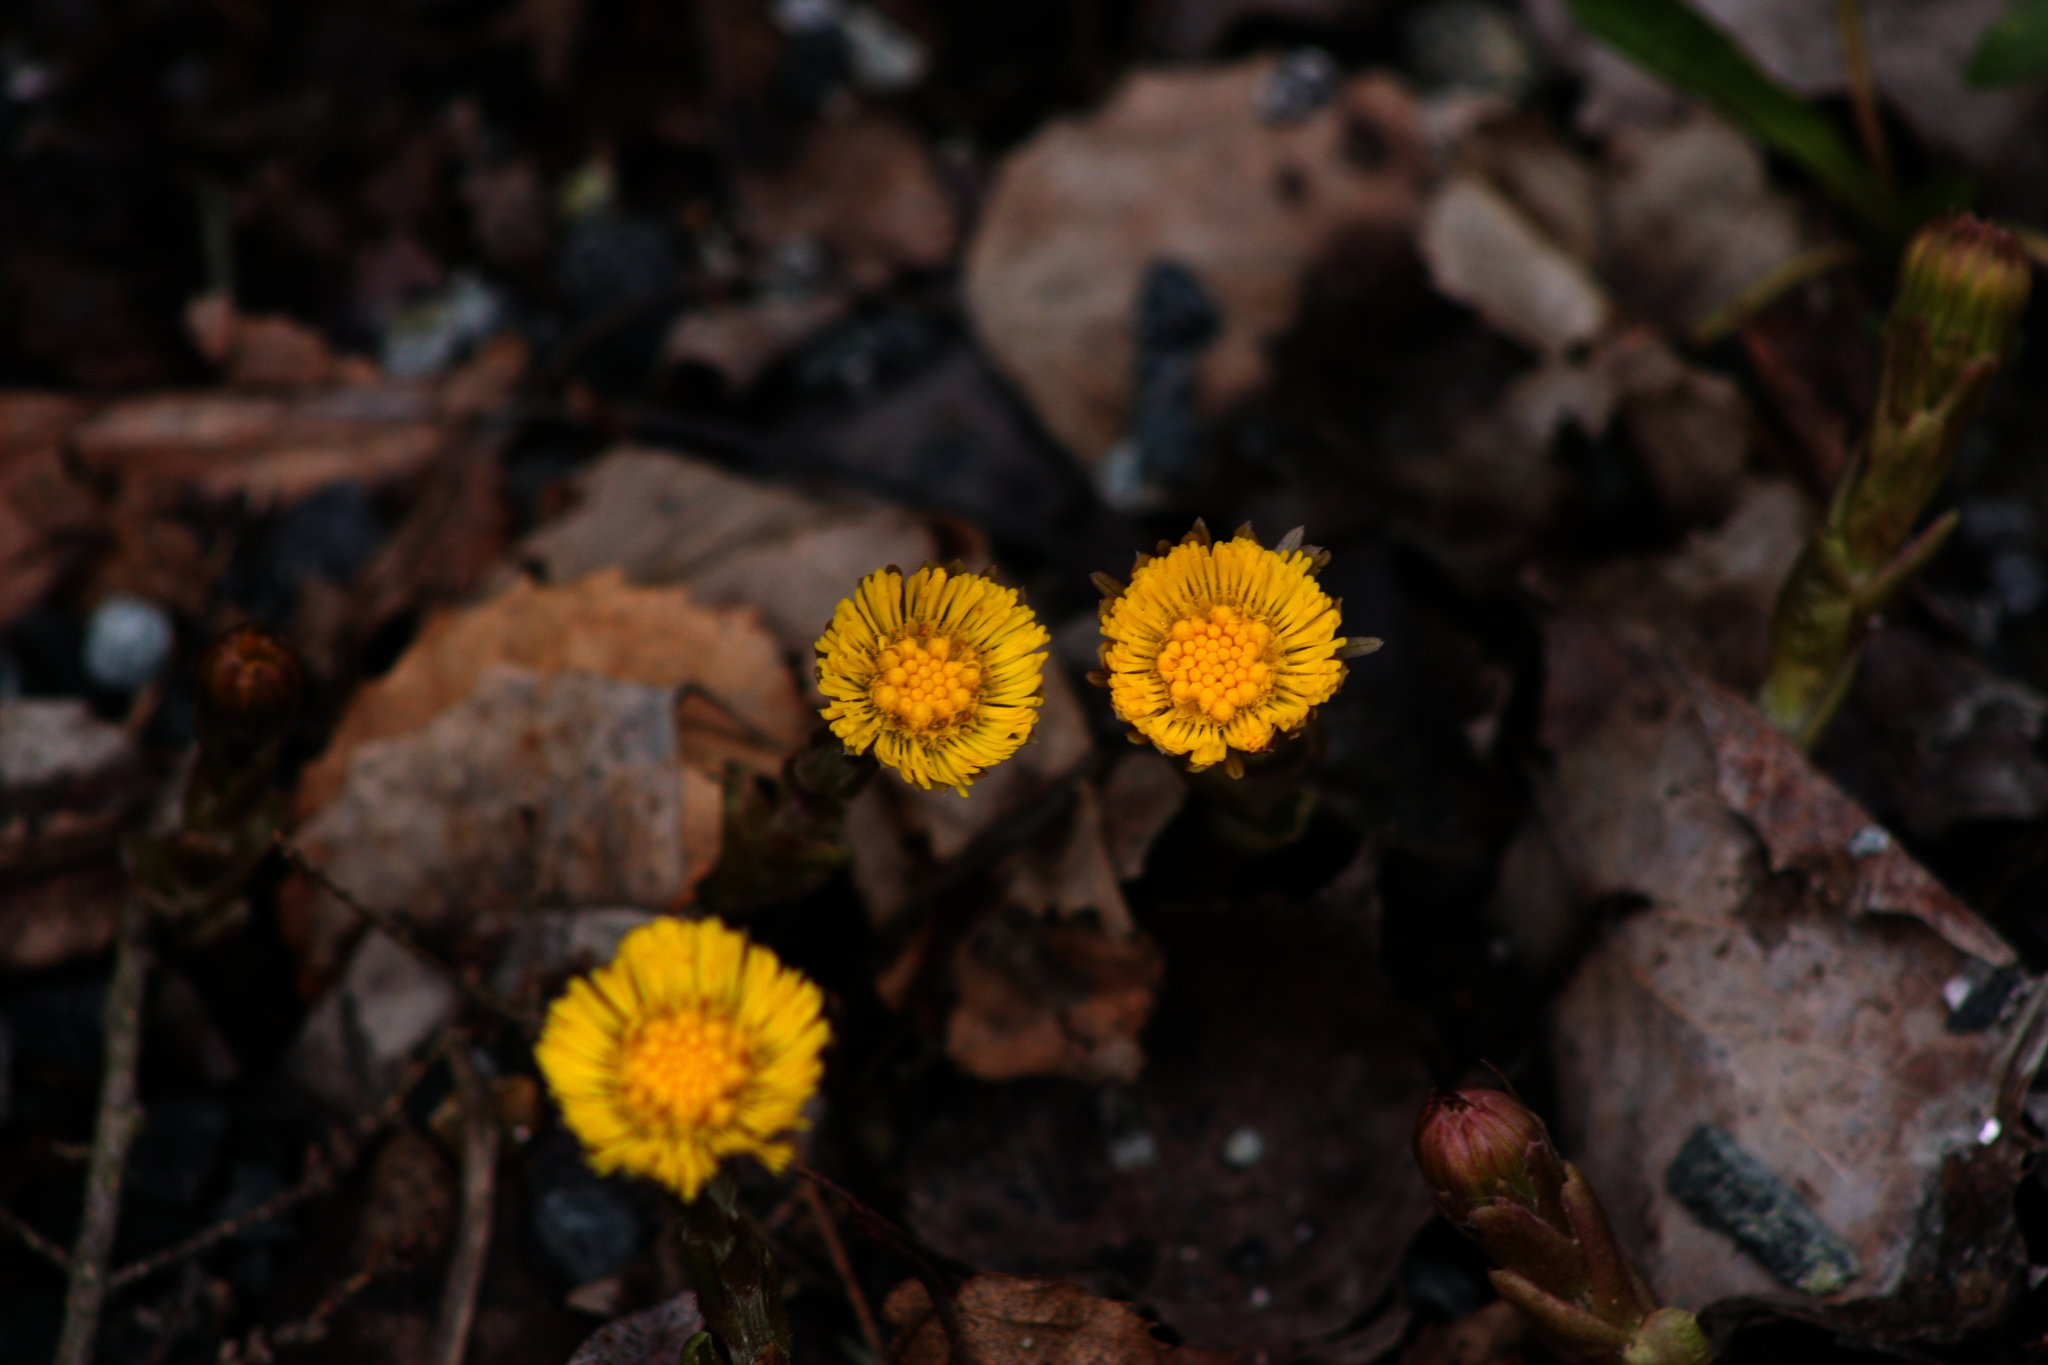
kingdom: Plantae
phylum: Tracheophyta
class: Magnoliopsida
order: Asterales
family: Asteraceae
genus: Tussilago
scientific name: Tussilago farfara
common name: Coltsfoot
